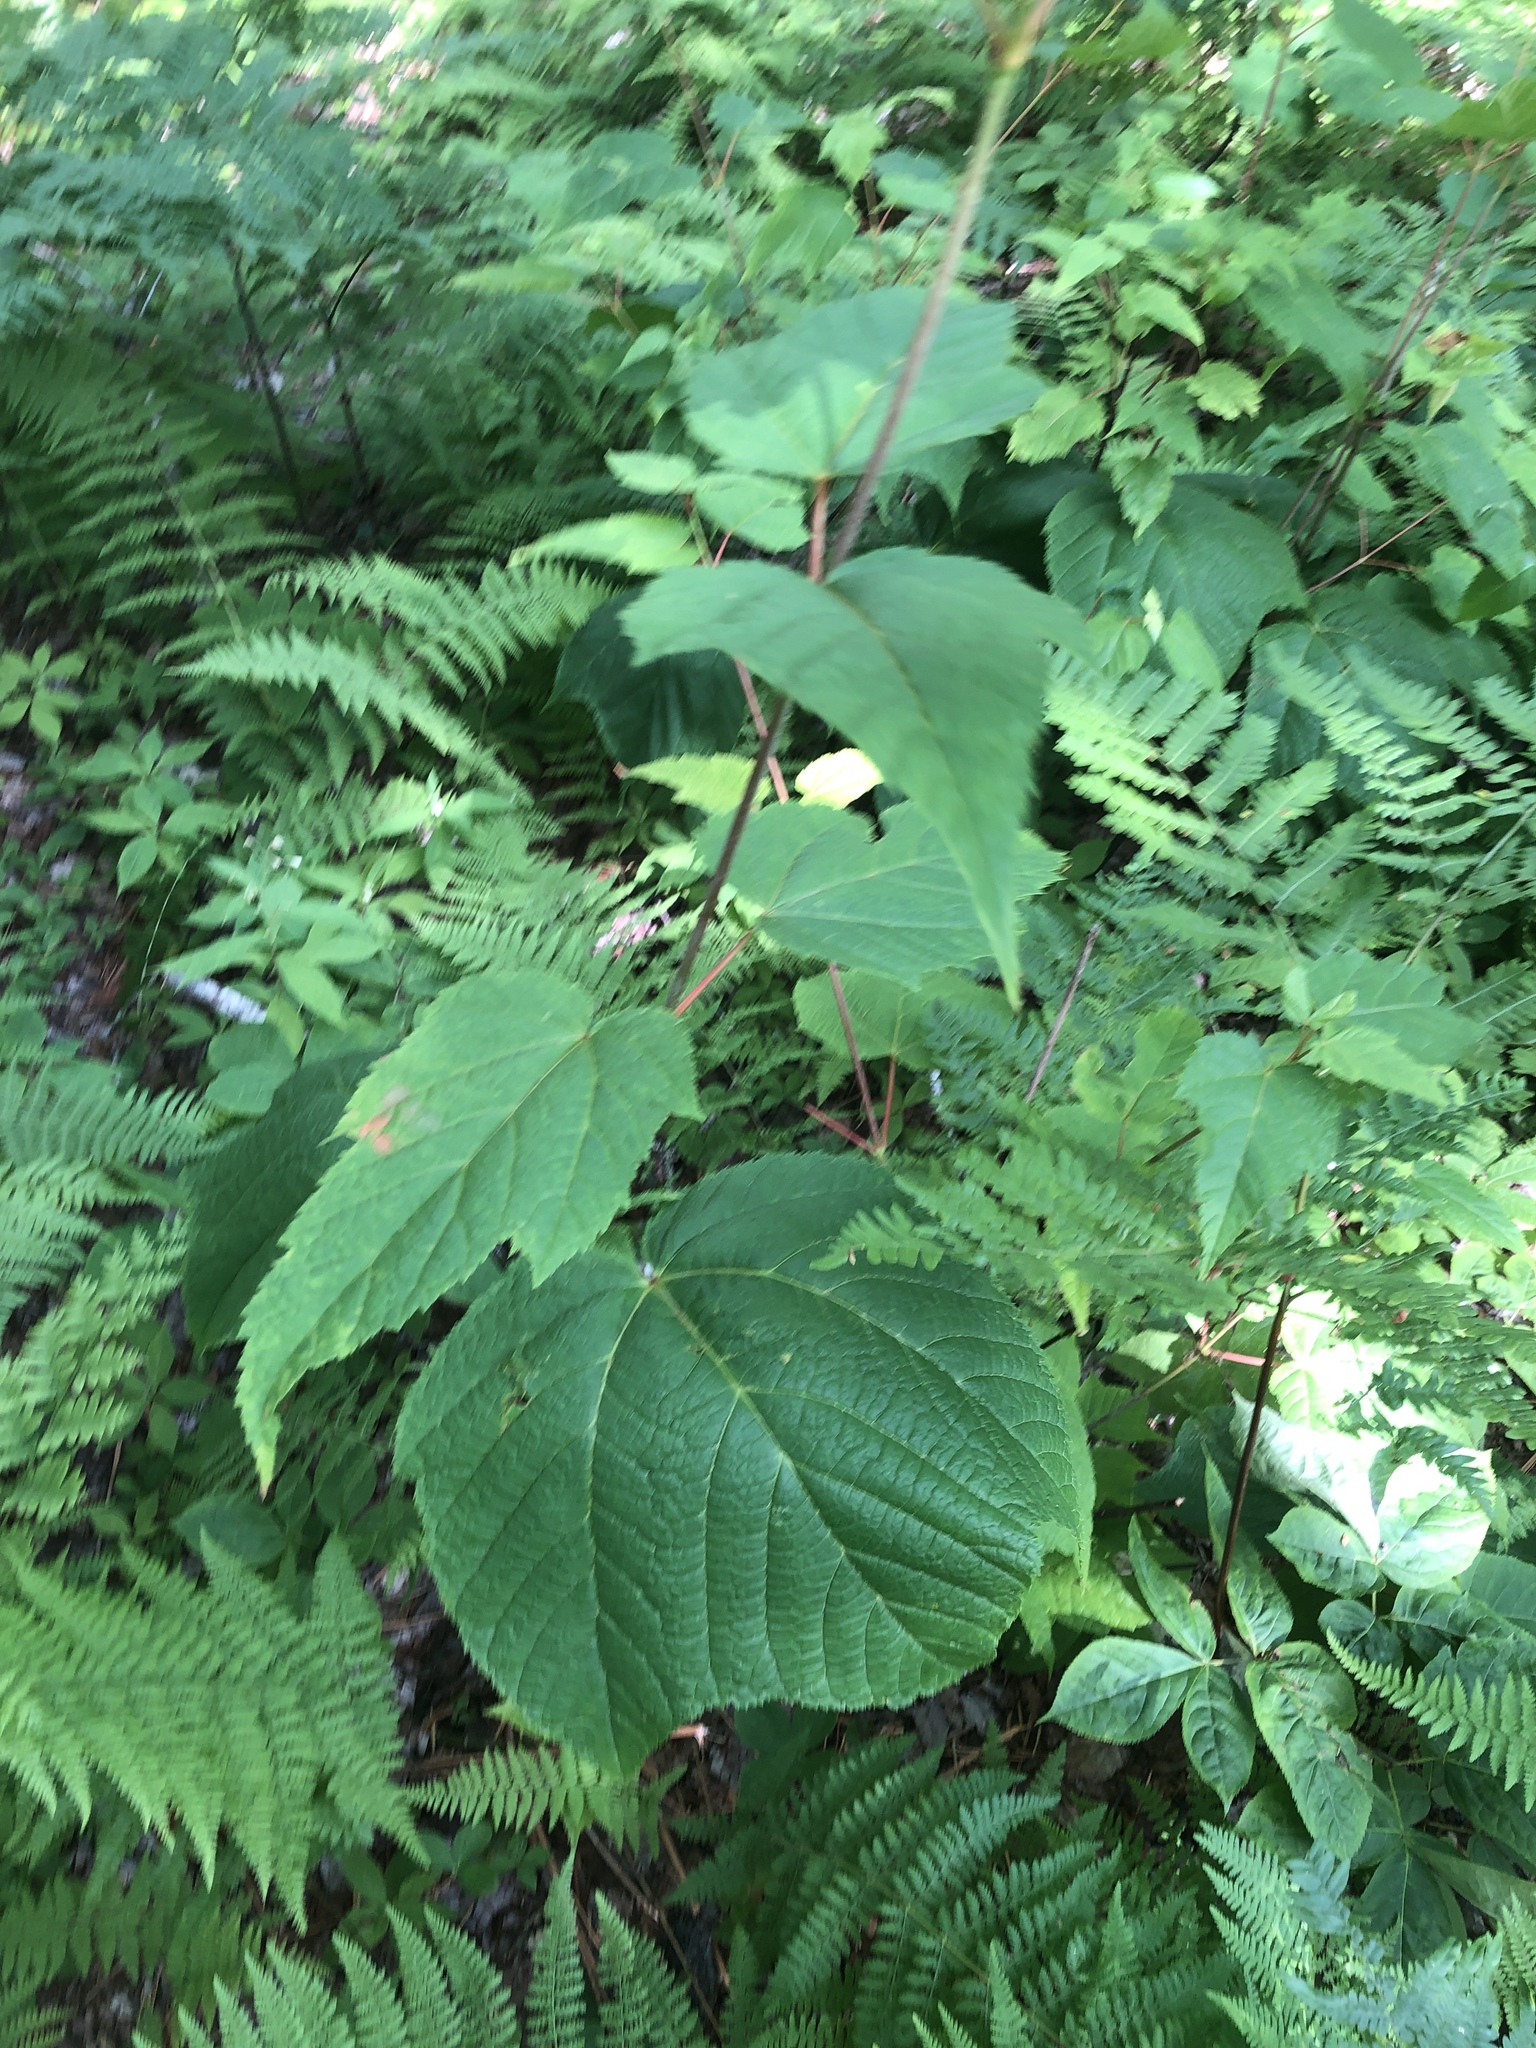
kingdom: Plantae
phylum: Tracheophyta
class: Magnoliopsida
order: Sapindales
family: Sapindaceae
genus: Acer
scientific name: Acer pensylvanicum
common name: Moosewood
